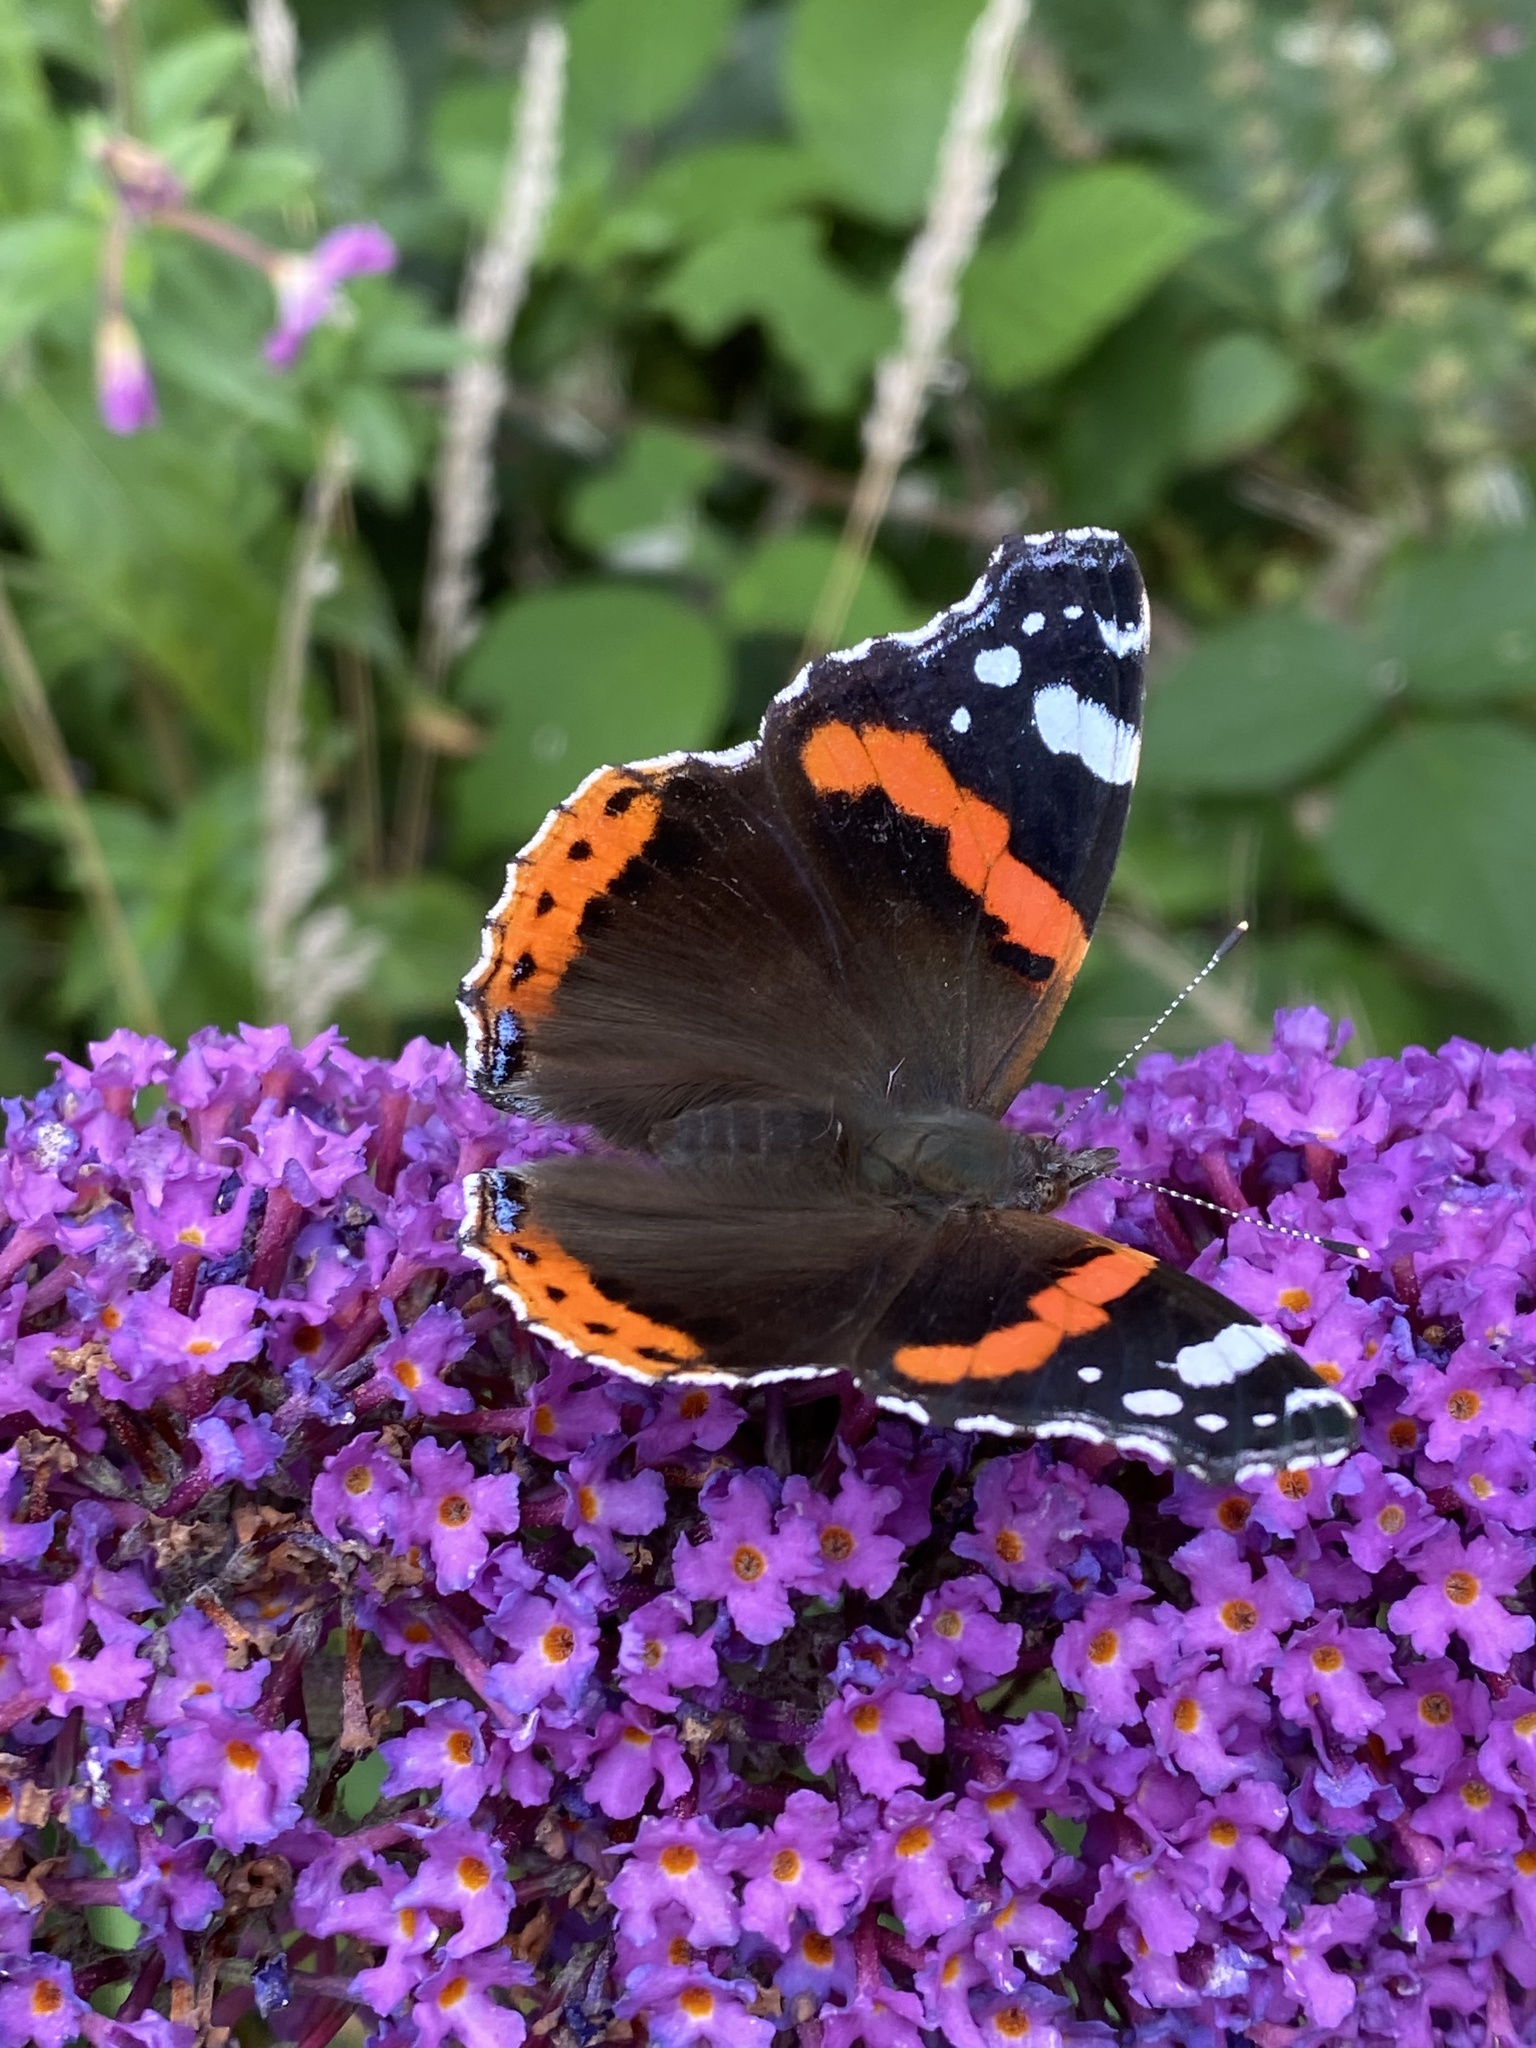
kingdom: Animalia
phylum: Arthropoda
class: Insecta
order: Lepidoptera
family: Nymphalidae
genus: Vanessa
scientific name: Vanessa atalanta
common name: Red admiral
